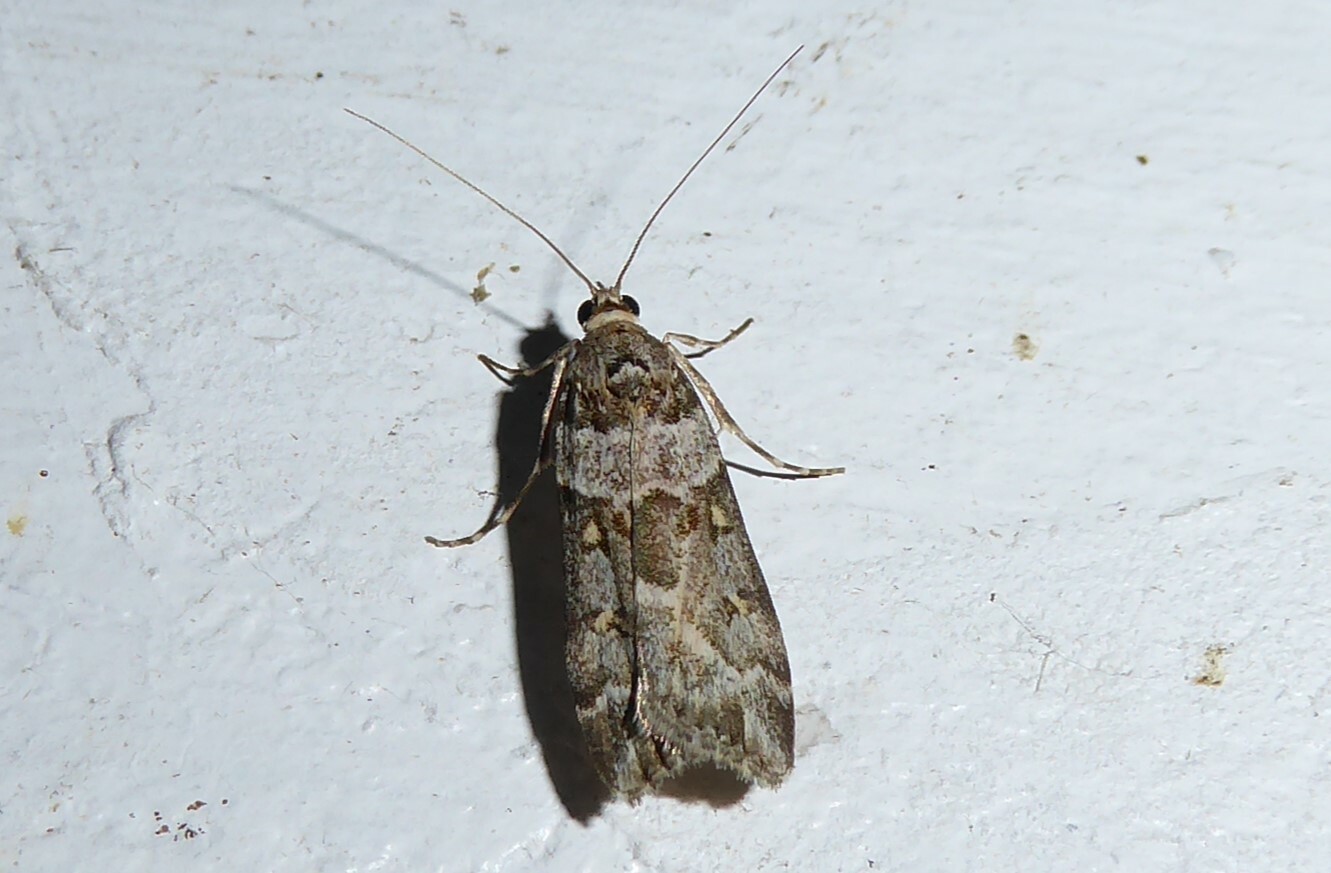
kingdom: Animalia
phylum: Arthropoda
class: Insecta
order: Lepidoptera
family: Crambidae
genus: Scoparia
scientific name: Scoparia tetracycla
